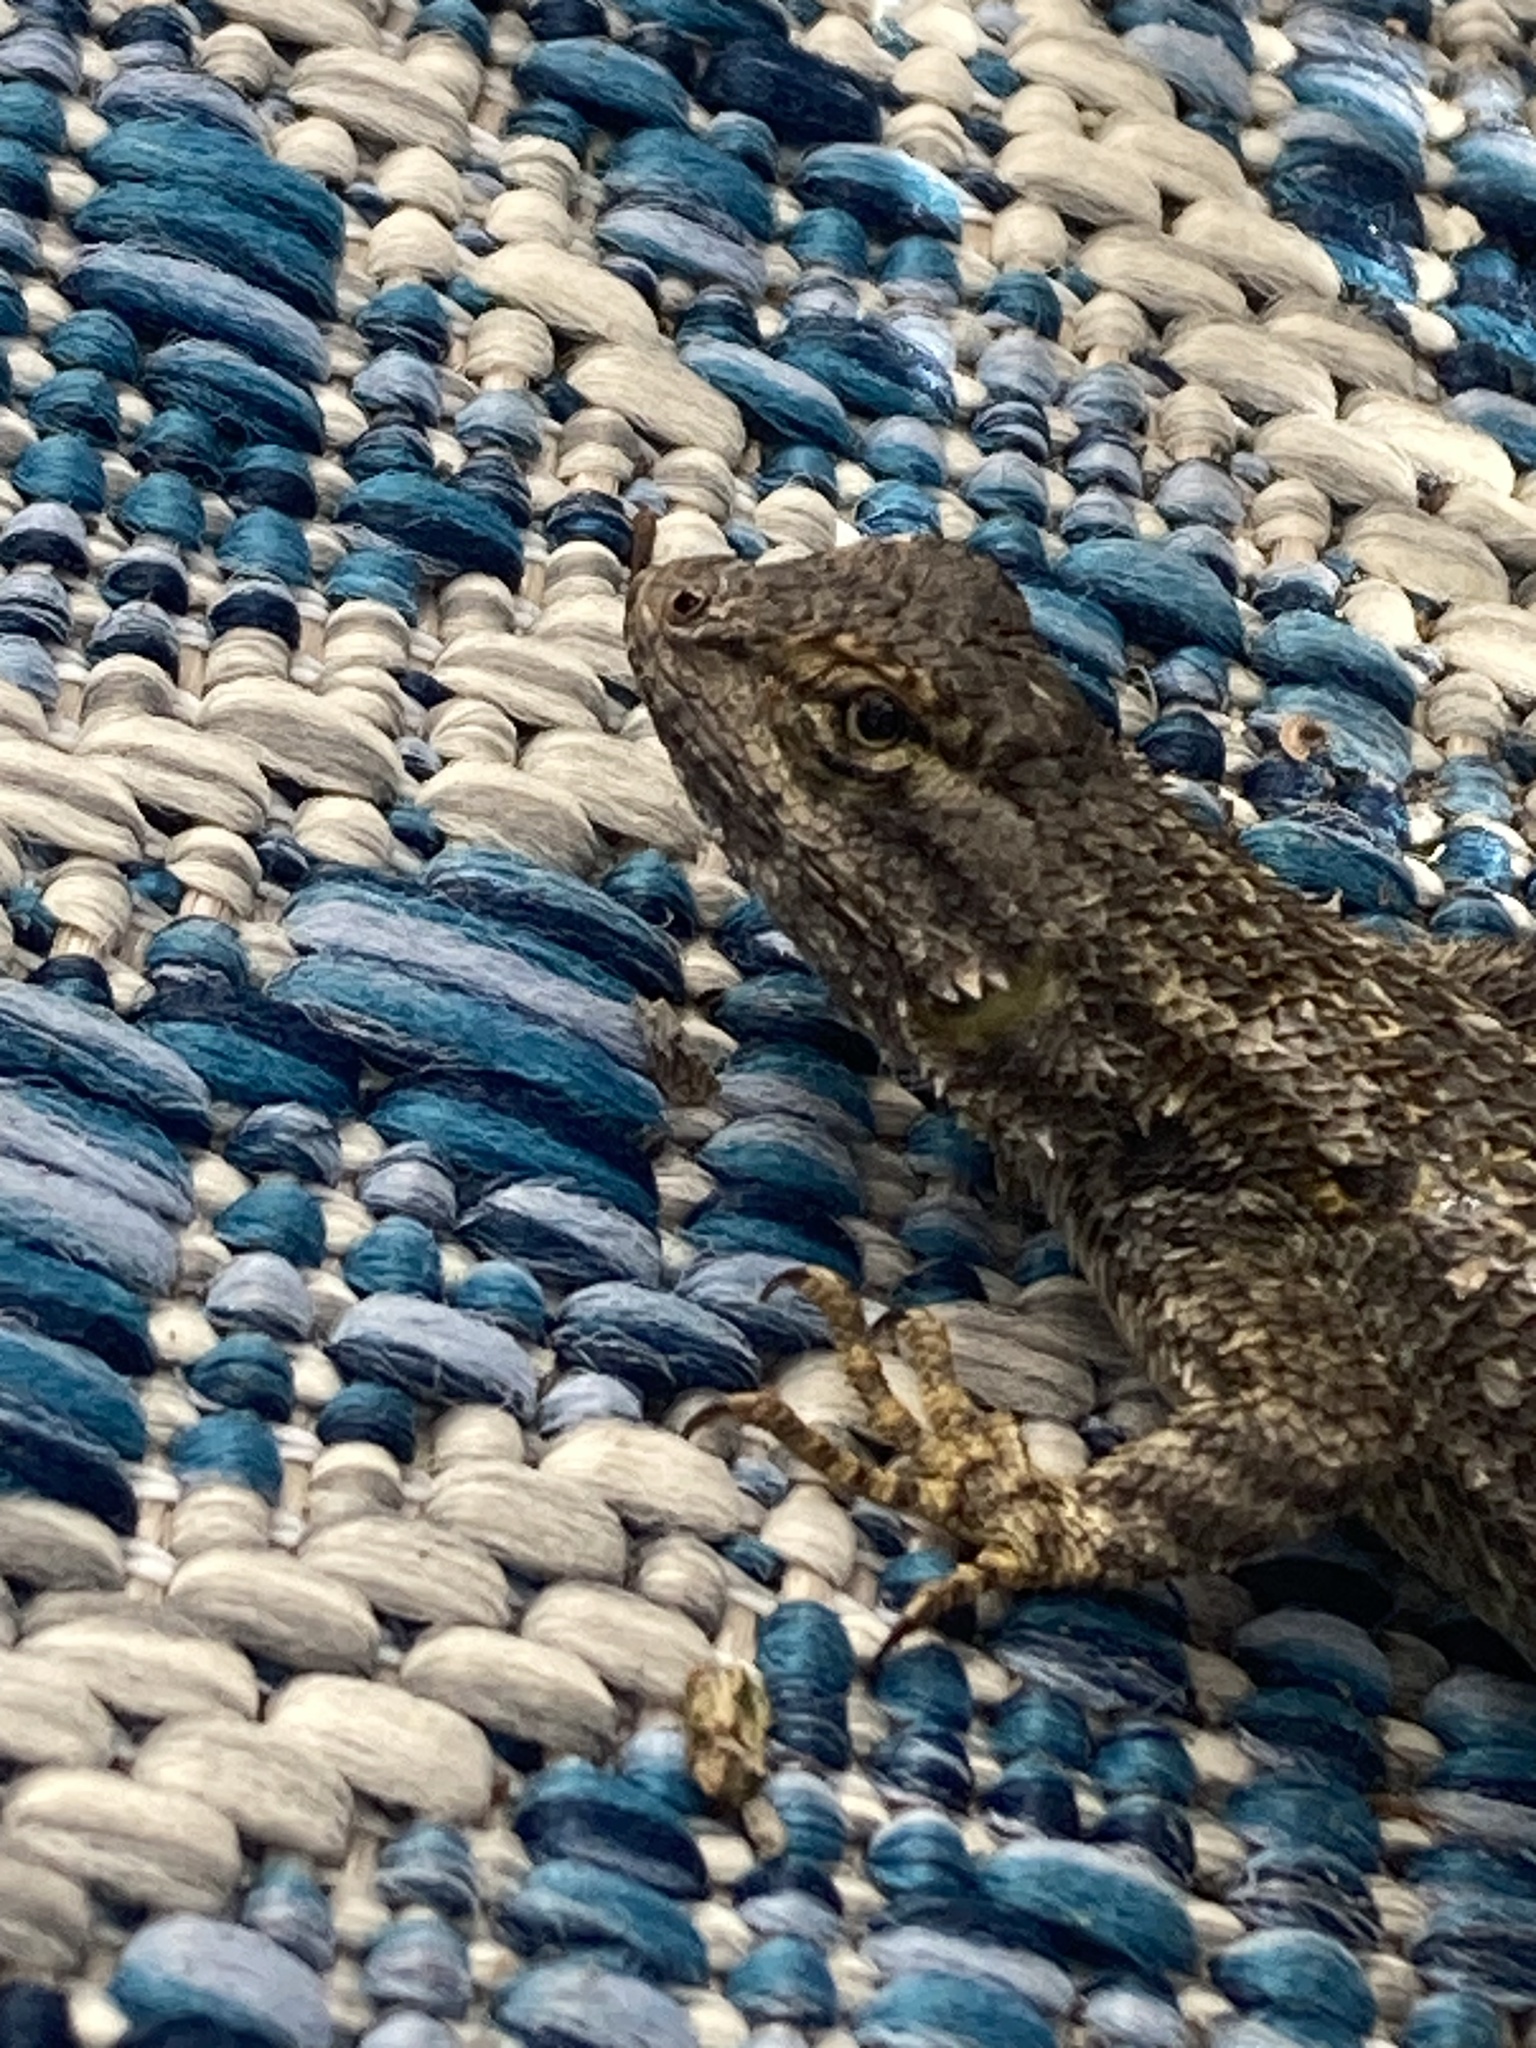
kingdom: Animalia
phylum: Chordata
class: Squamata
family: Phrynosomatidae
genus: Sceloporus
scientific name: Sceloporus occidentalis
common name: Western fence lizard
